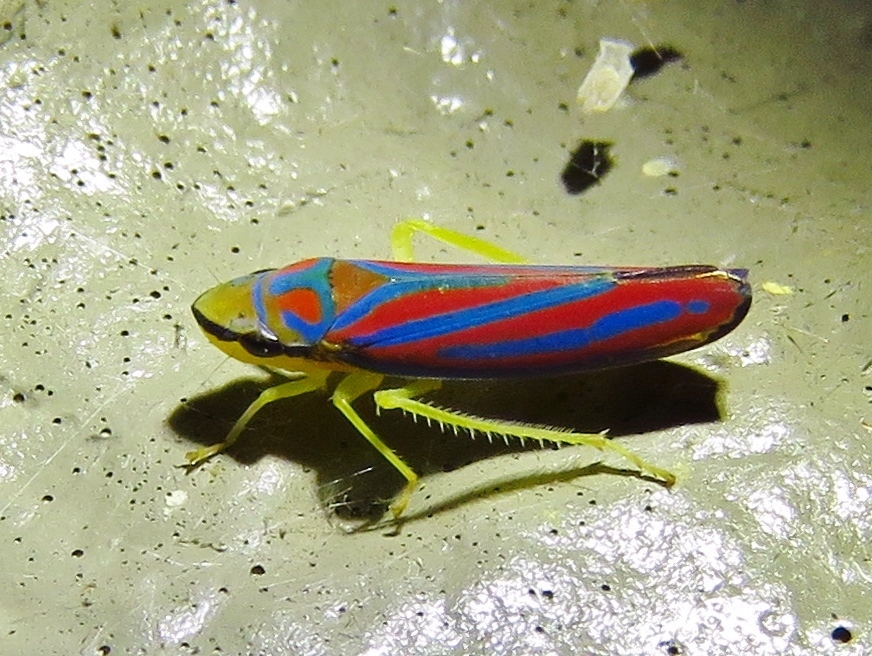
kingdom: Animalia
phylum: Arthropoda
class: Insecta
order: Hemiptera
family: Cicadellidae
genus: Graphocephala
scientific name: Graphocephala coccinea
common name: Candy-striped leafhopper
